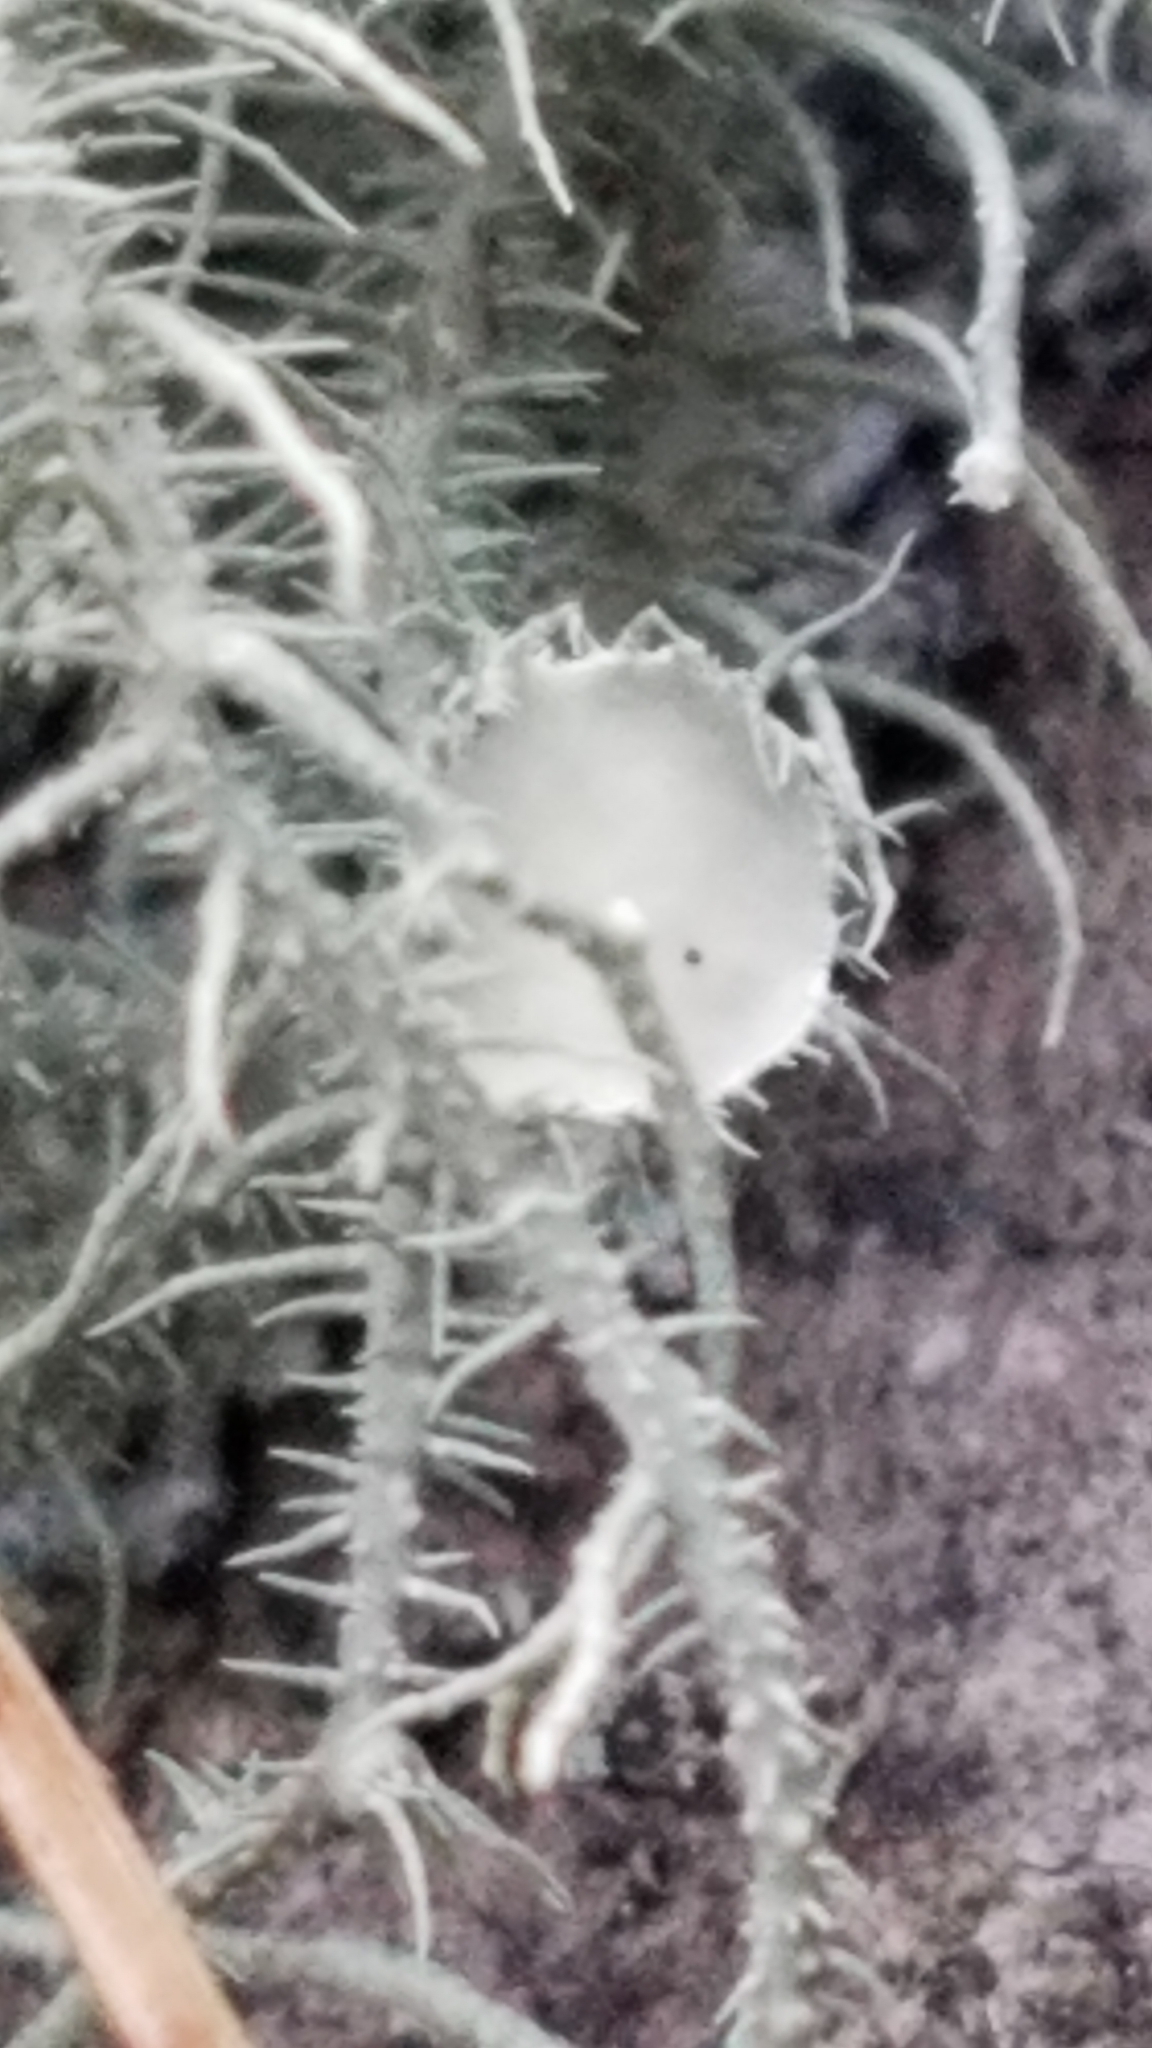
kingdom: Fungi
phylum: Ascomycota
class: Lecanoromycetes
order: Lecanorales
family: Parmeliaceae
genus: Usnea
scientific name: Usnea strigosa
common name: Bushy beard lichen
